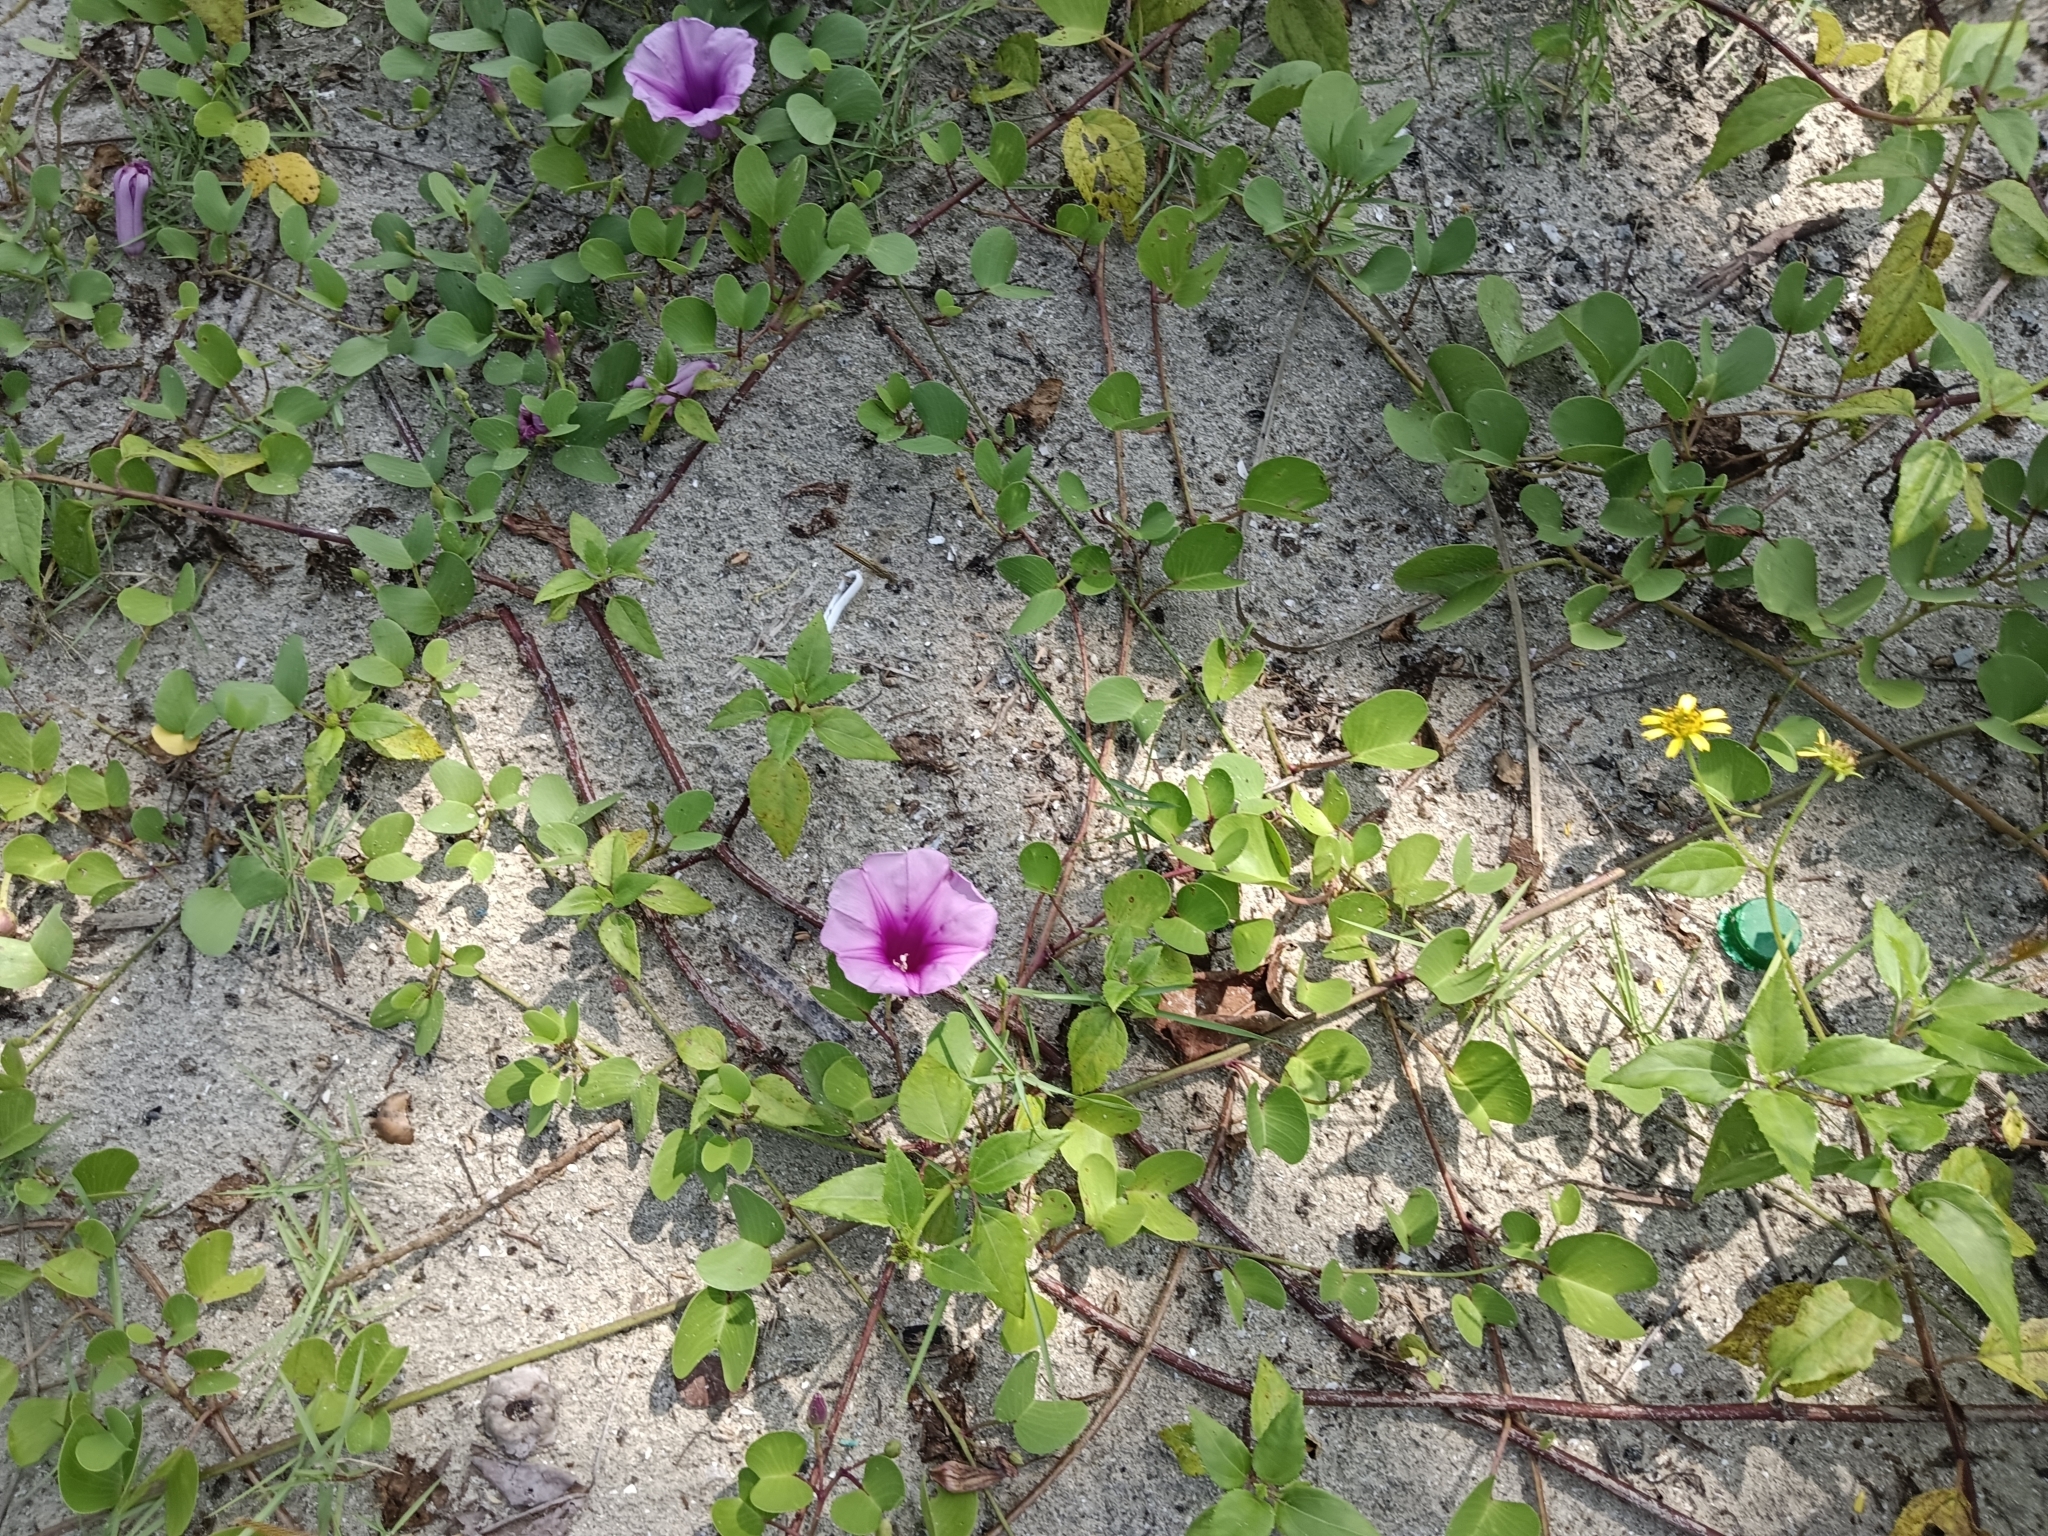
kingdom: Plantae
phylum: Tracheophyta
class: Magnoliopsida
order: Solanales
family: Convolvulaceae
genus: Ipomoea
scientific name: Ipomoea pes-caprae
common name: Beach morning glory
